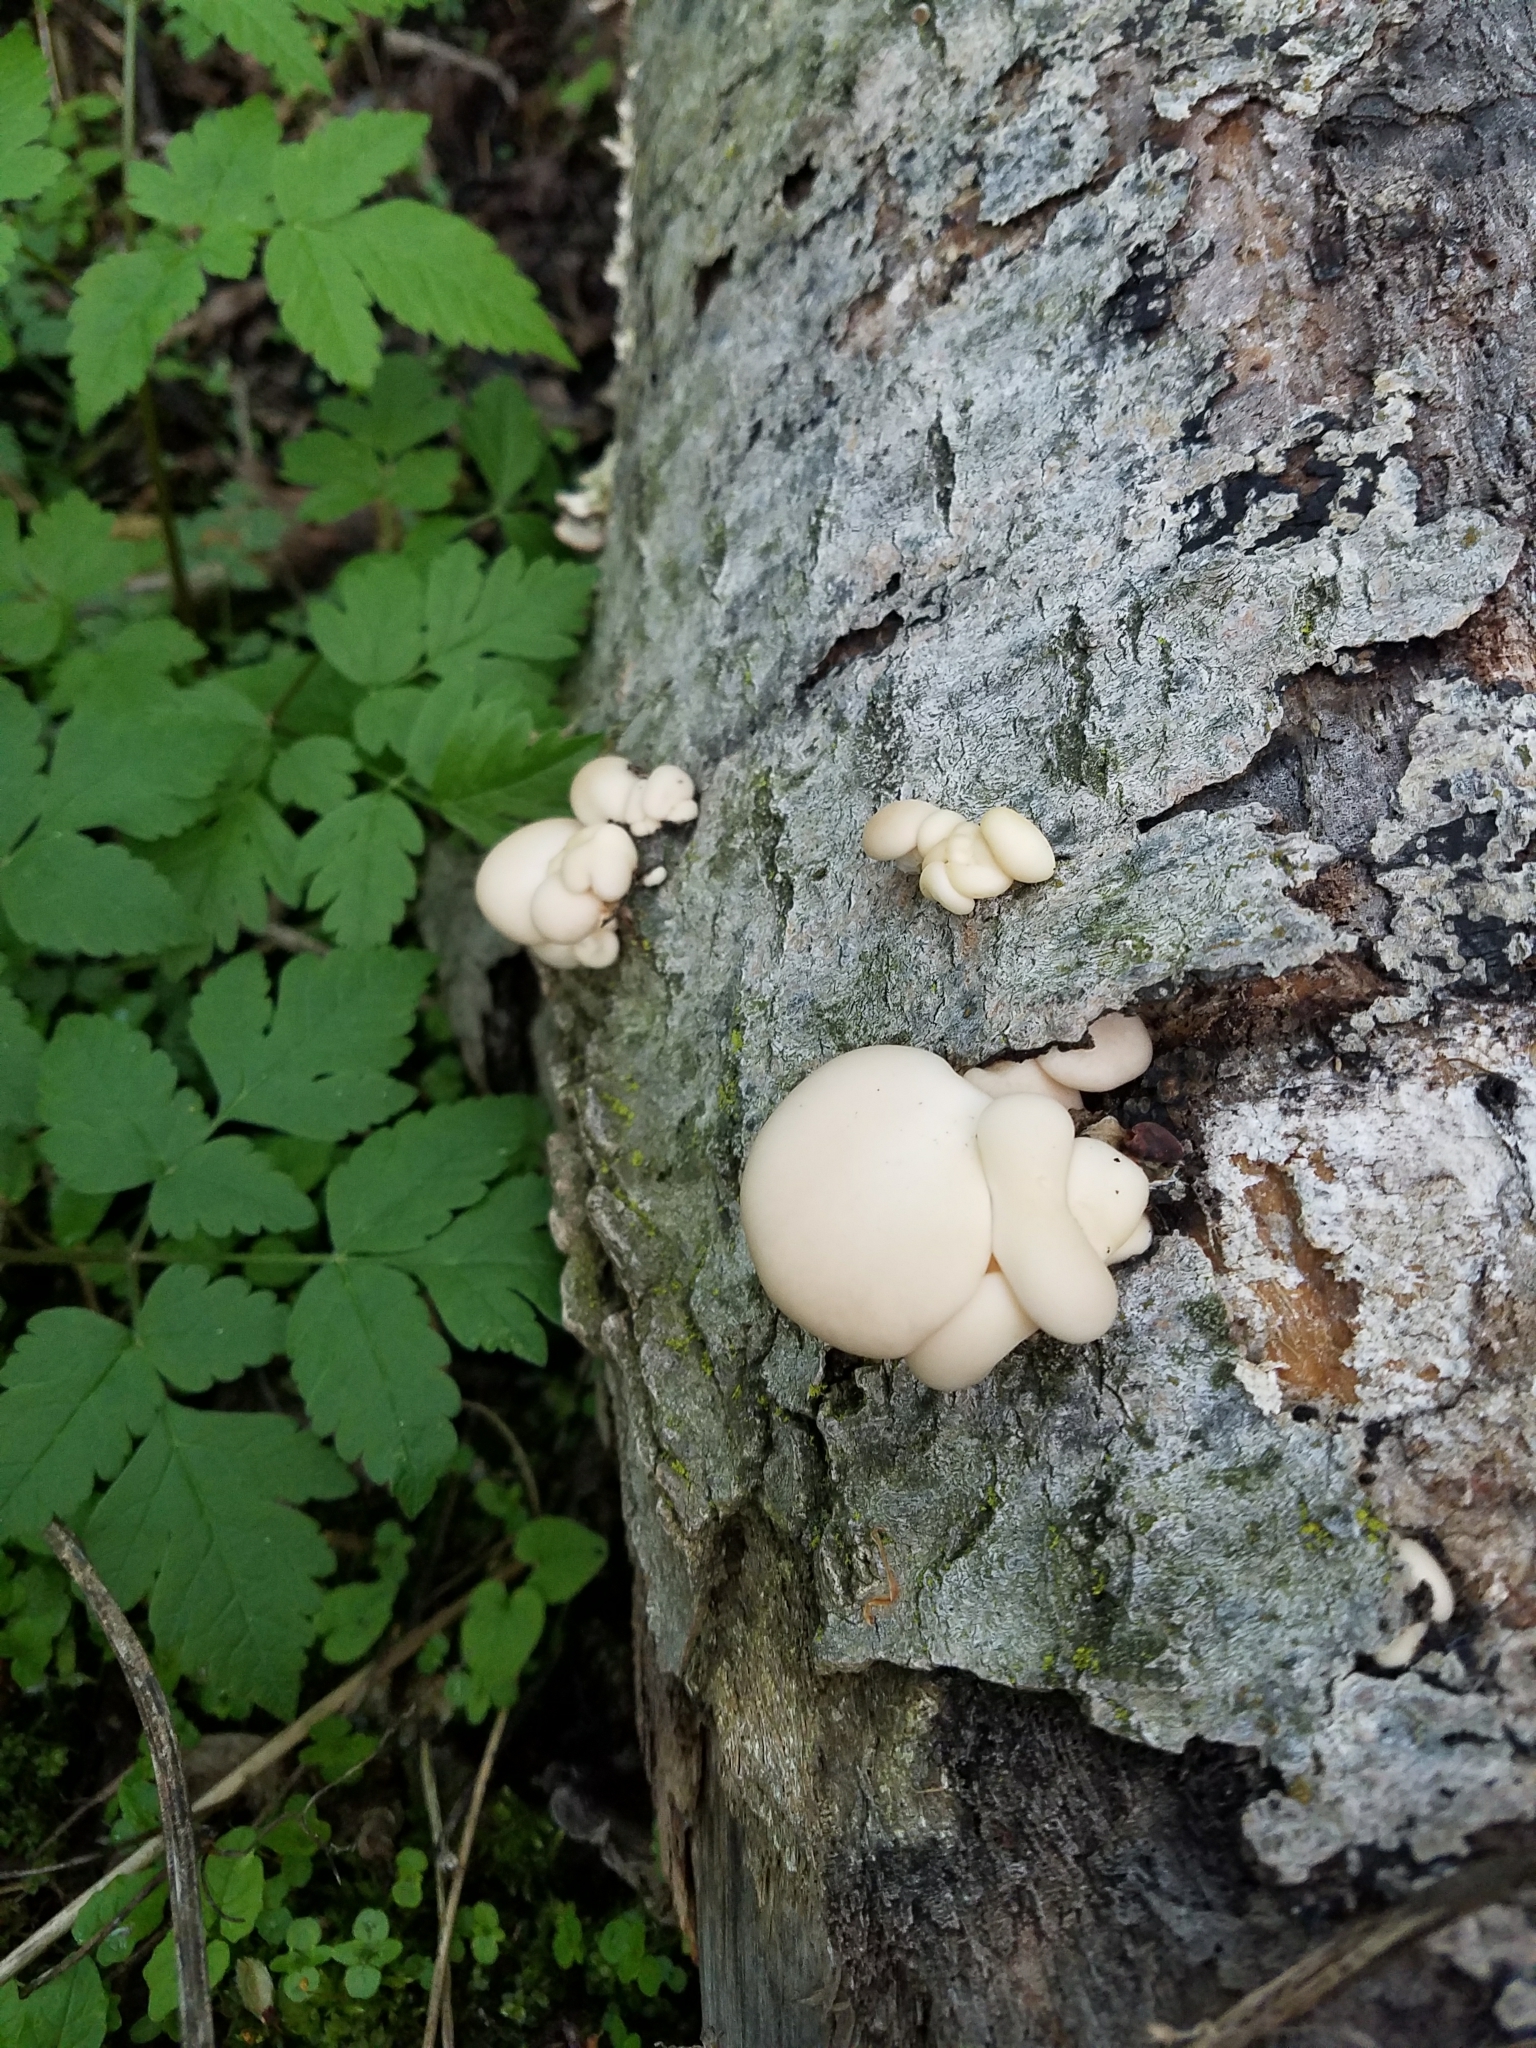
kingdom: Fungi
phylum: Basidiomycota
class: Agaricomycetes
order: Agaricales
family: Pleurotaceae
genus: Pleurotus
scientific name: Pleurotus ostreatus
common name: Oyster mushroom
